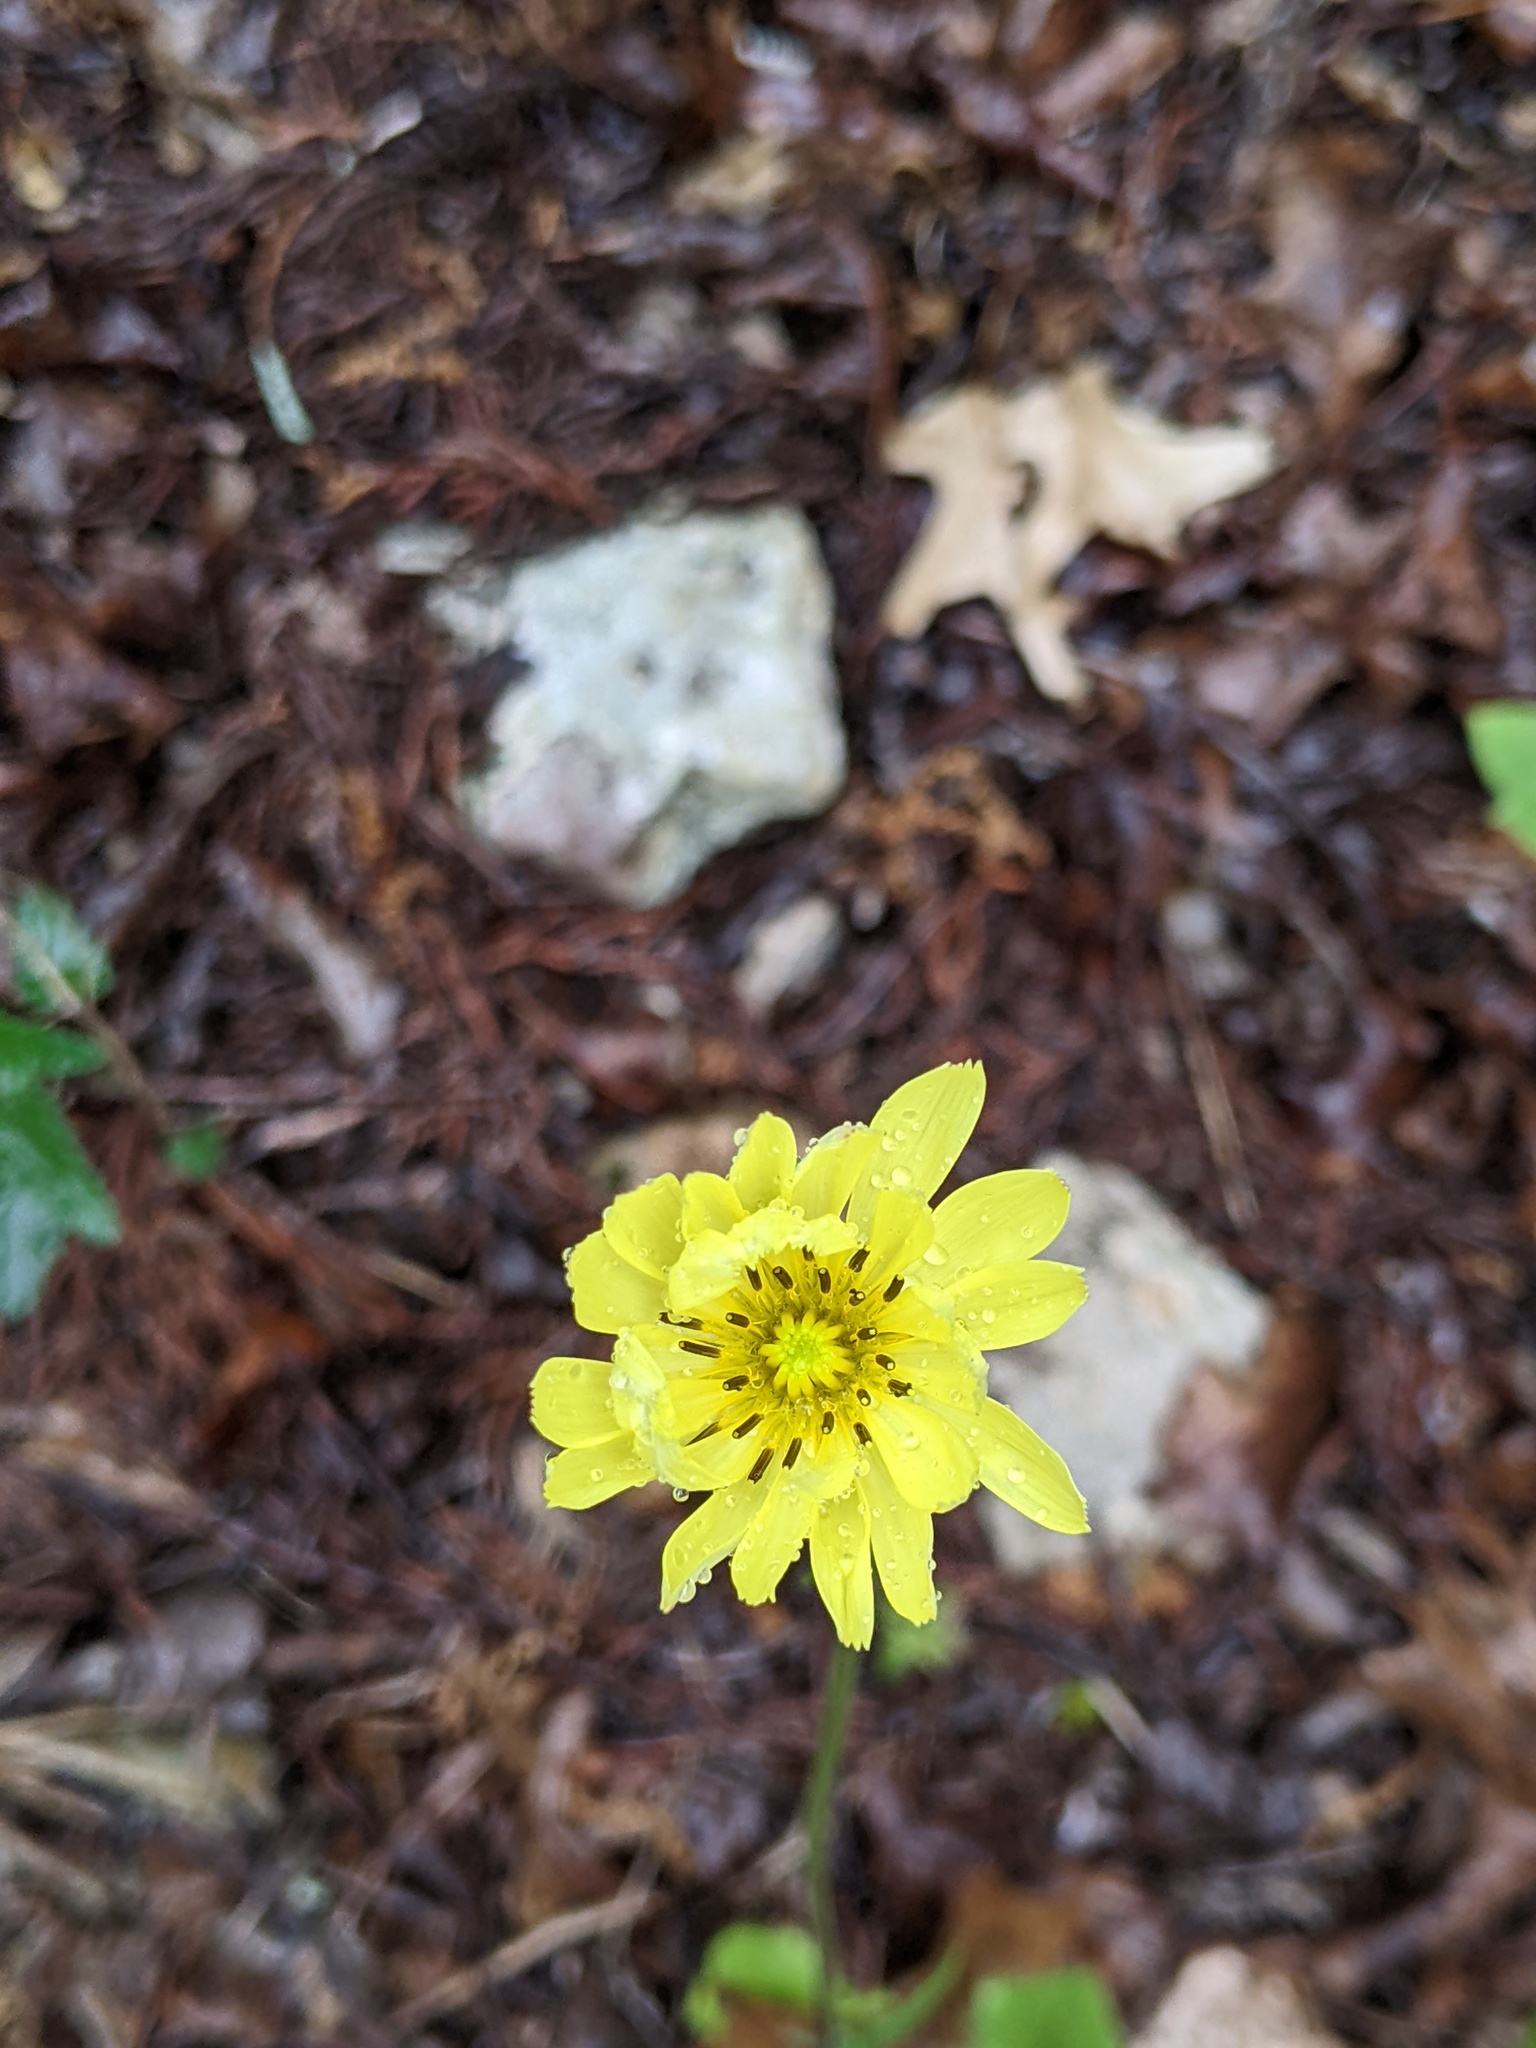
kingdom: Plantae
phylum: Tracheophyta
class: Magnoliopsida
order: Asterales
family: Asteraceae
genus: Pyrrhopappus
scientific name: Pyrrhopappus pauciflorus
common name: Texas false dandelion
